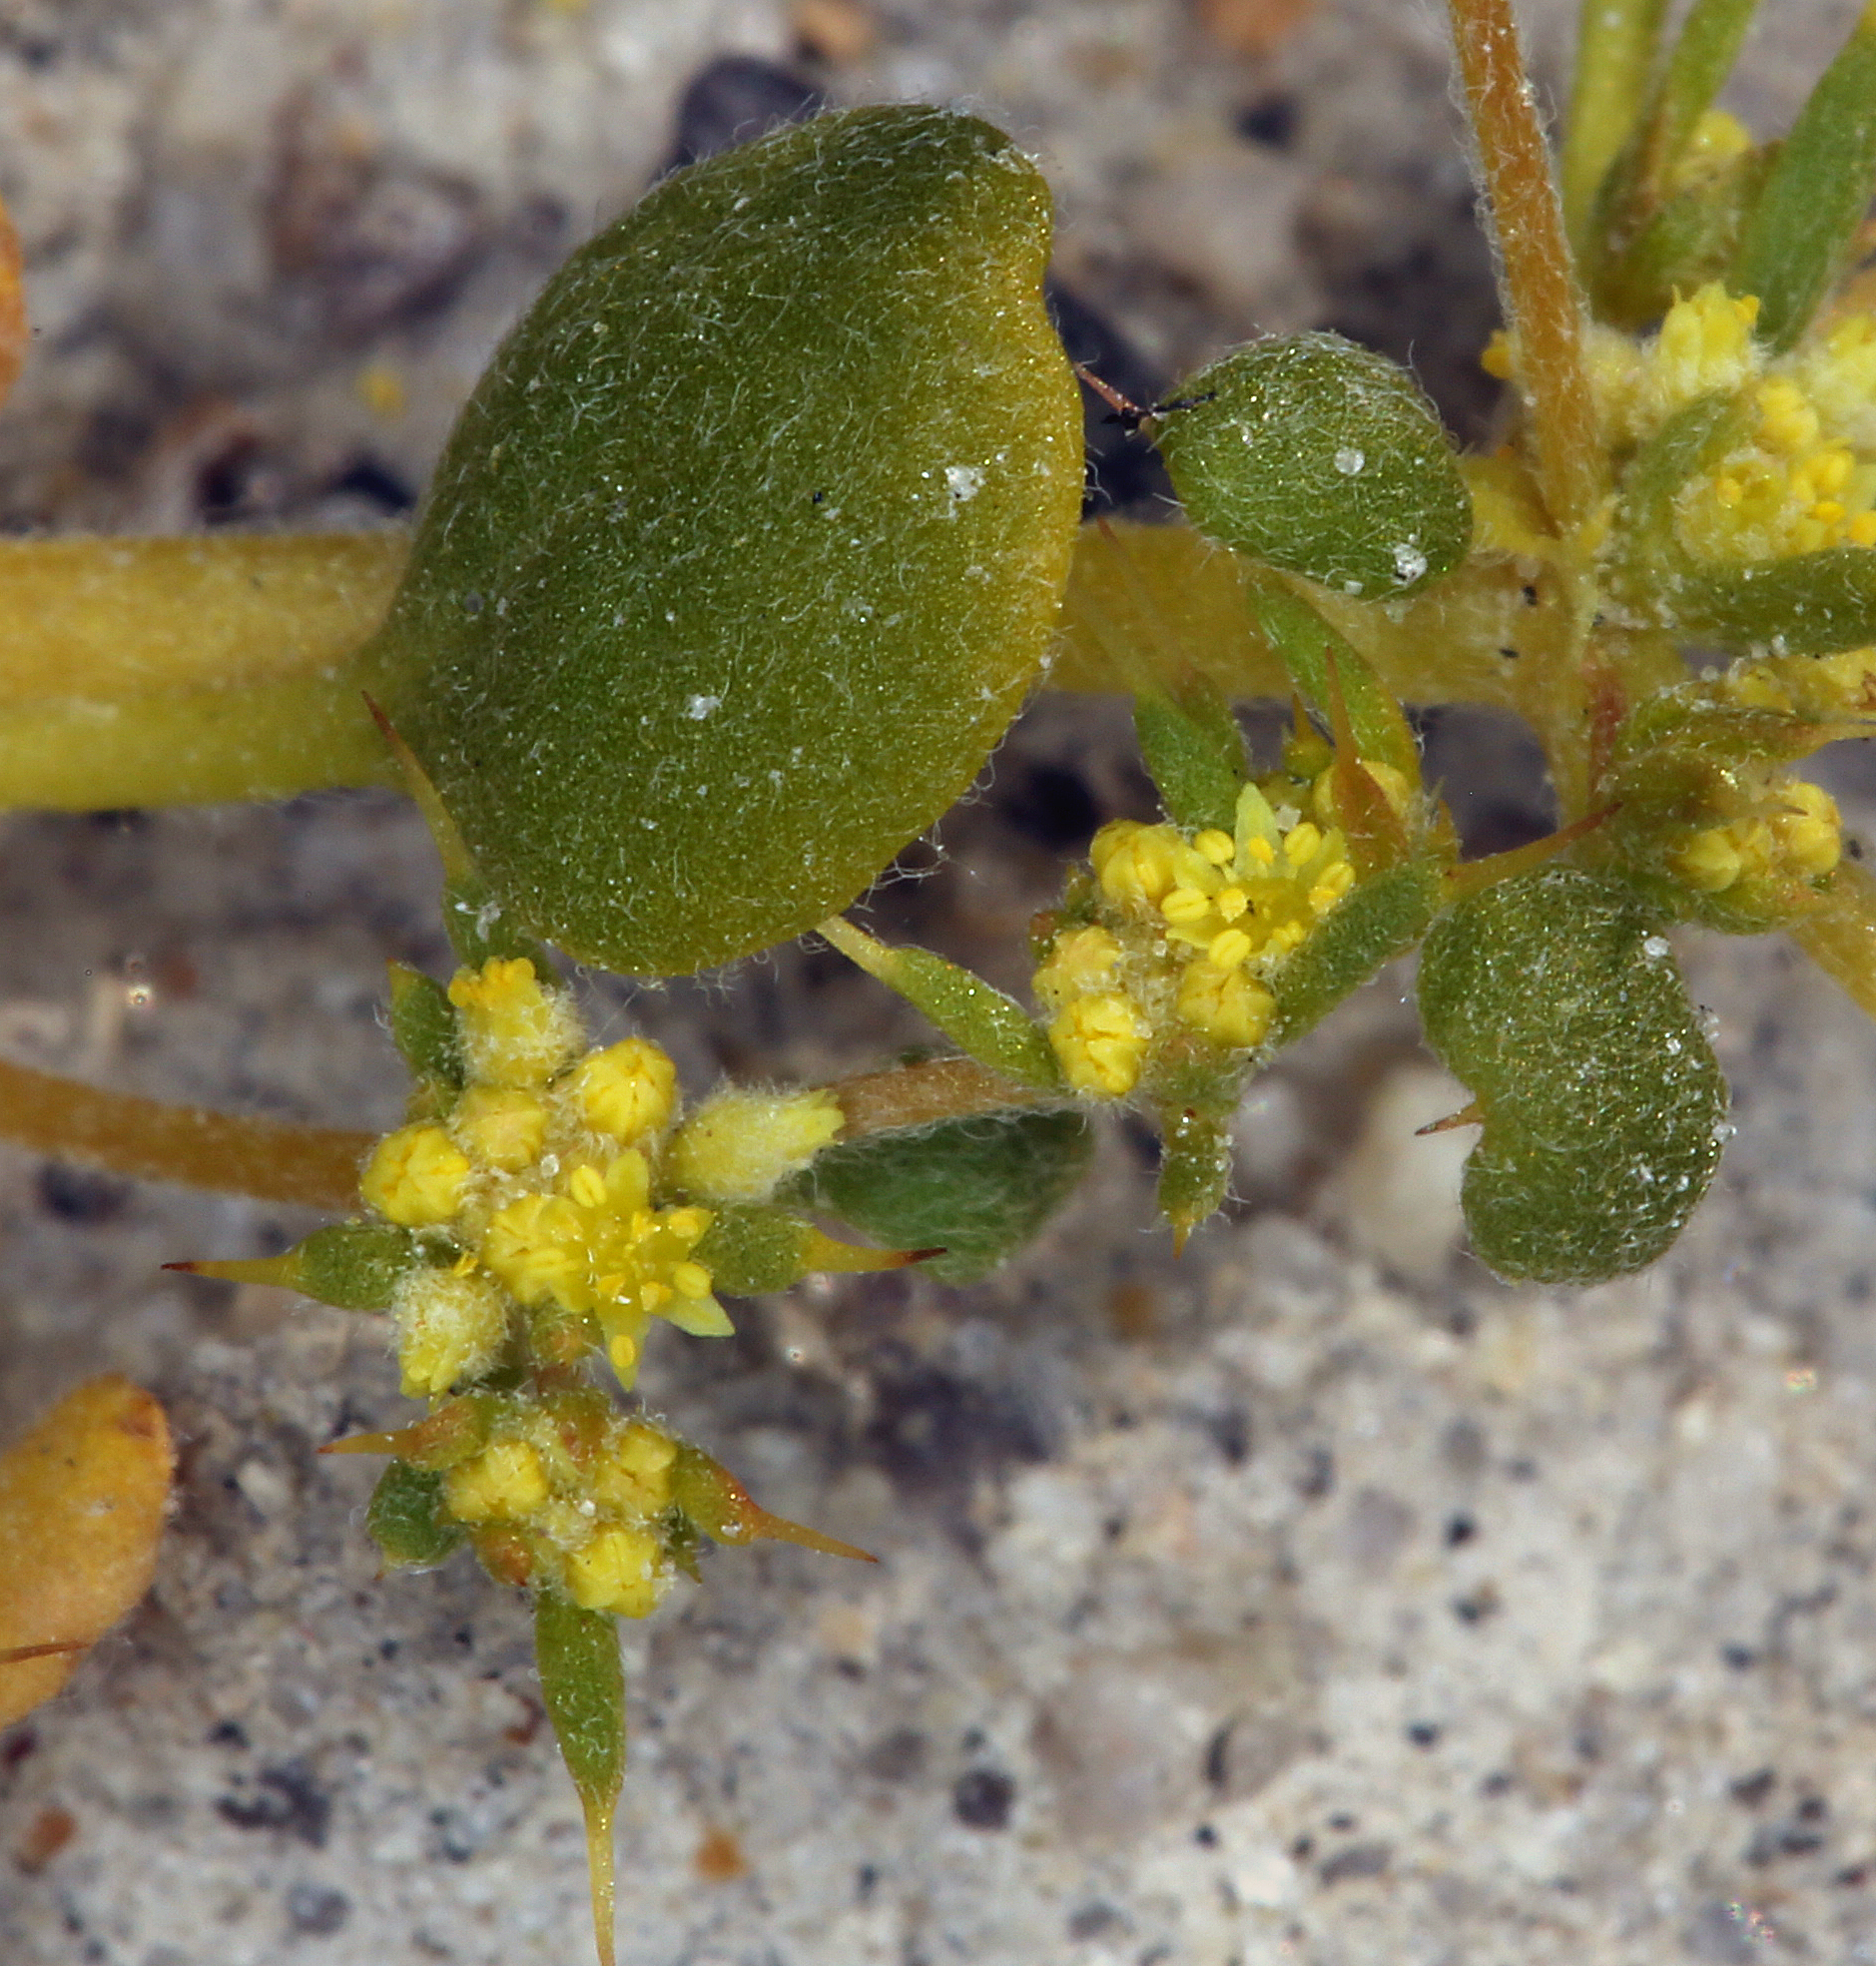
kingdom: Plantae
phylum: Tracheophyta
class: Magnoliopsida
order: Caryophyllales
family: Polygonaceae
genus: Goodmania
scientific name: Goodmania luteola
